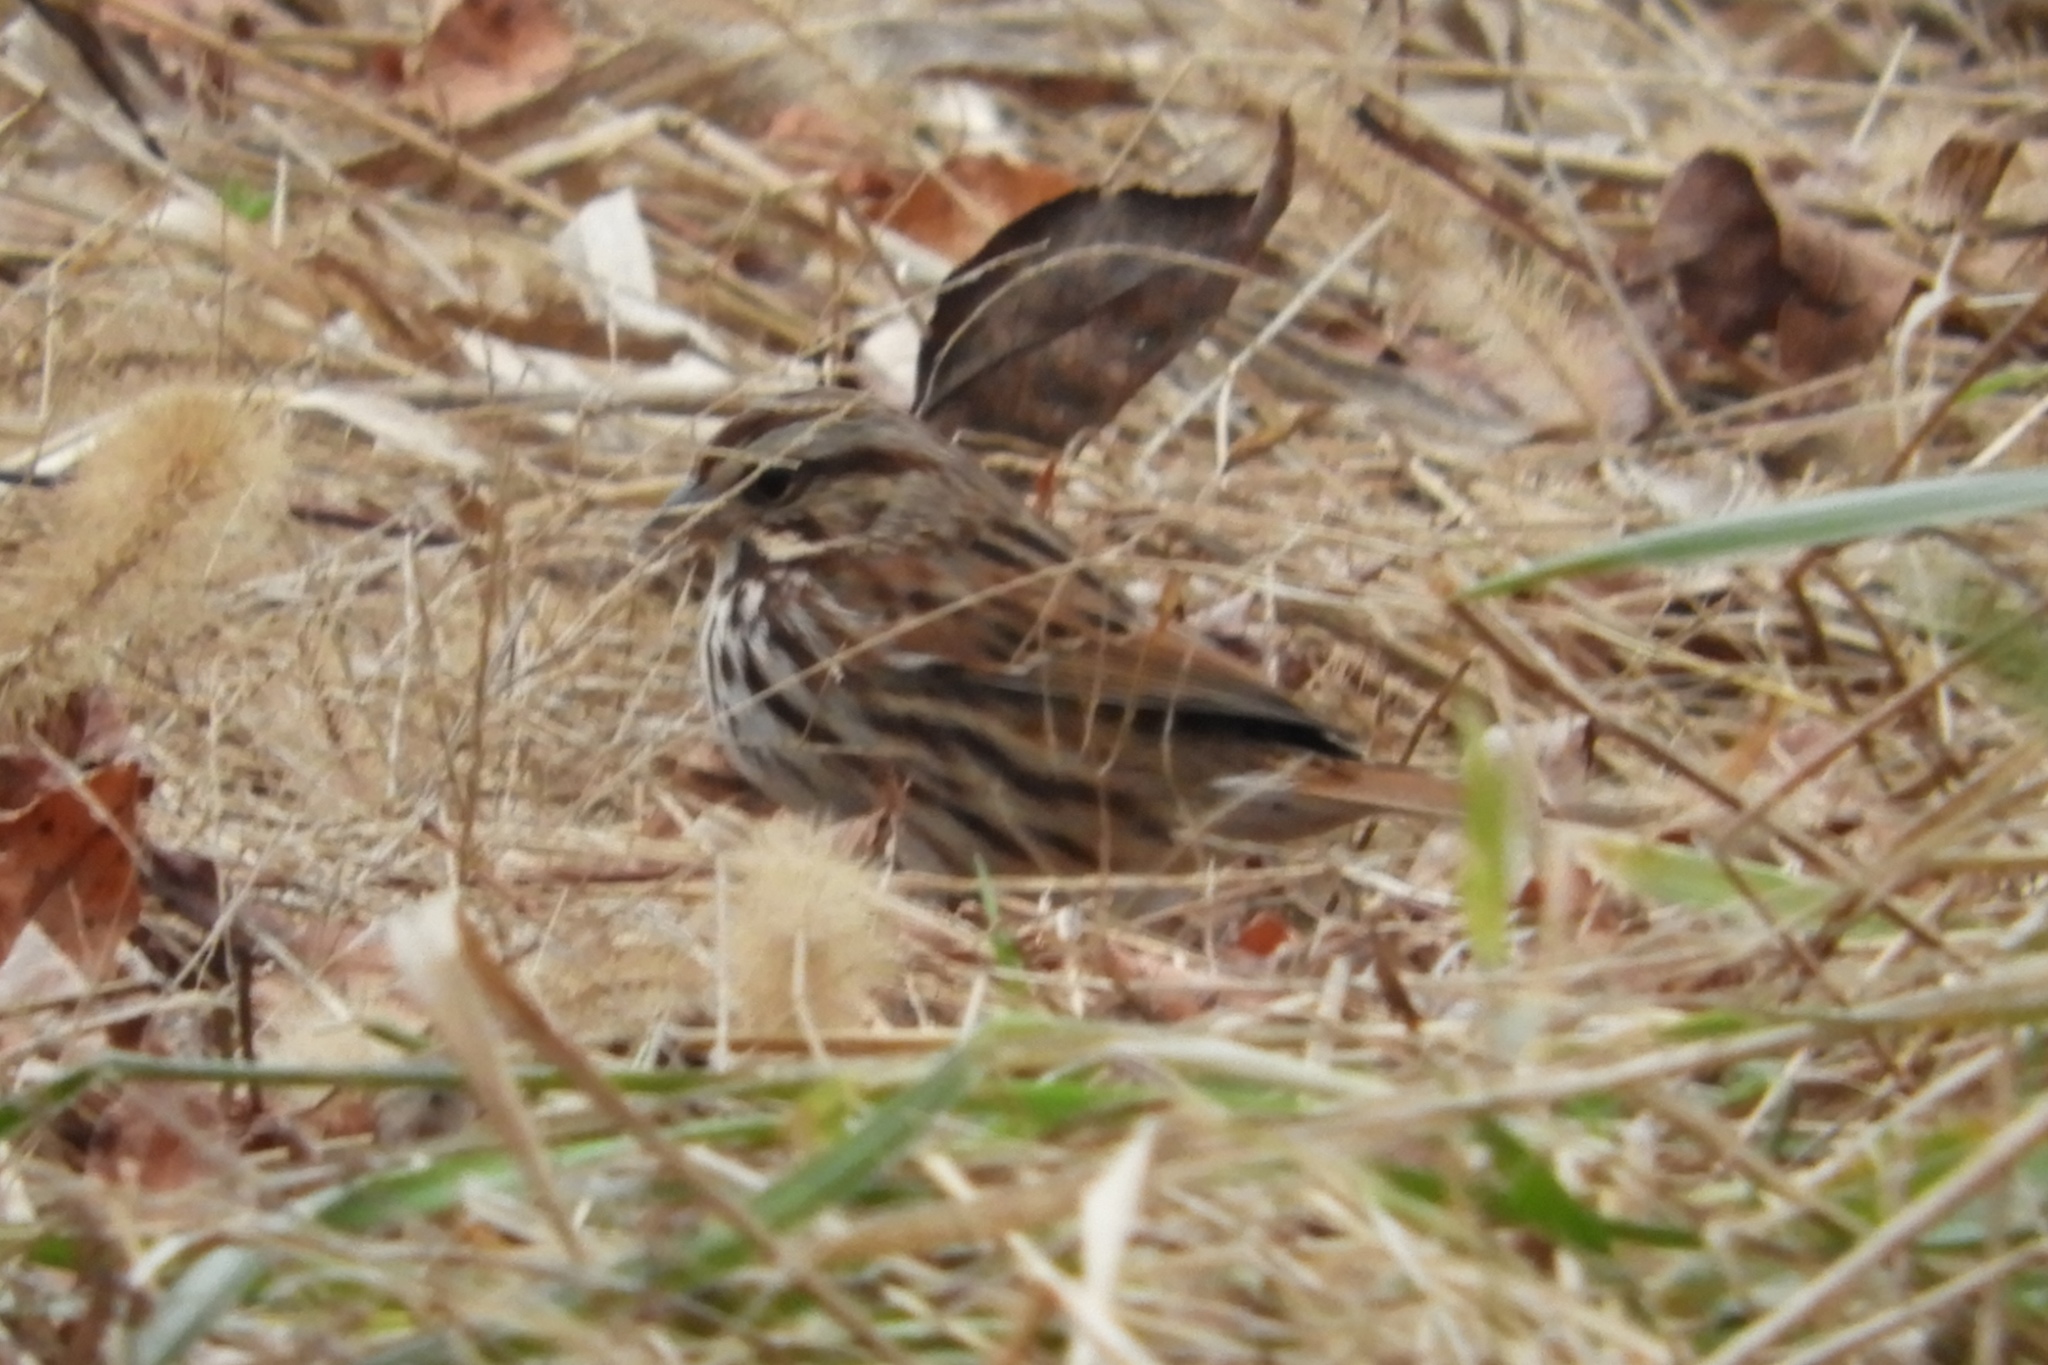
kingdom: Animalia
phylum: Chordata
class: Aves
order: Passeriformes
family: Passerellidae
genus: Melospiza
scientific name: Melospiza melodia
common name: Song sparrow
